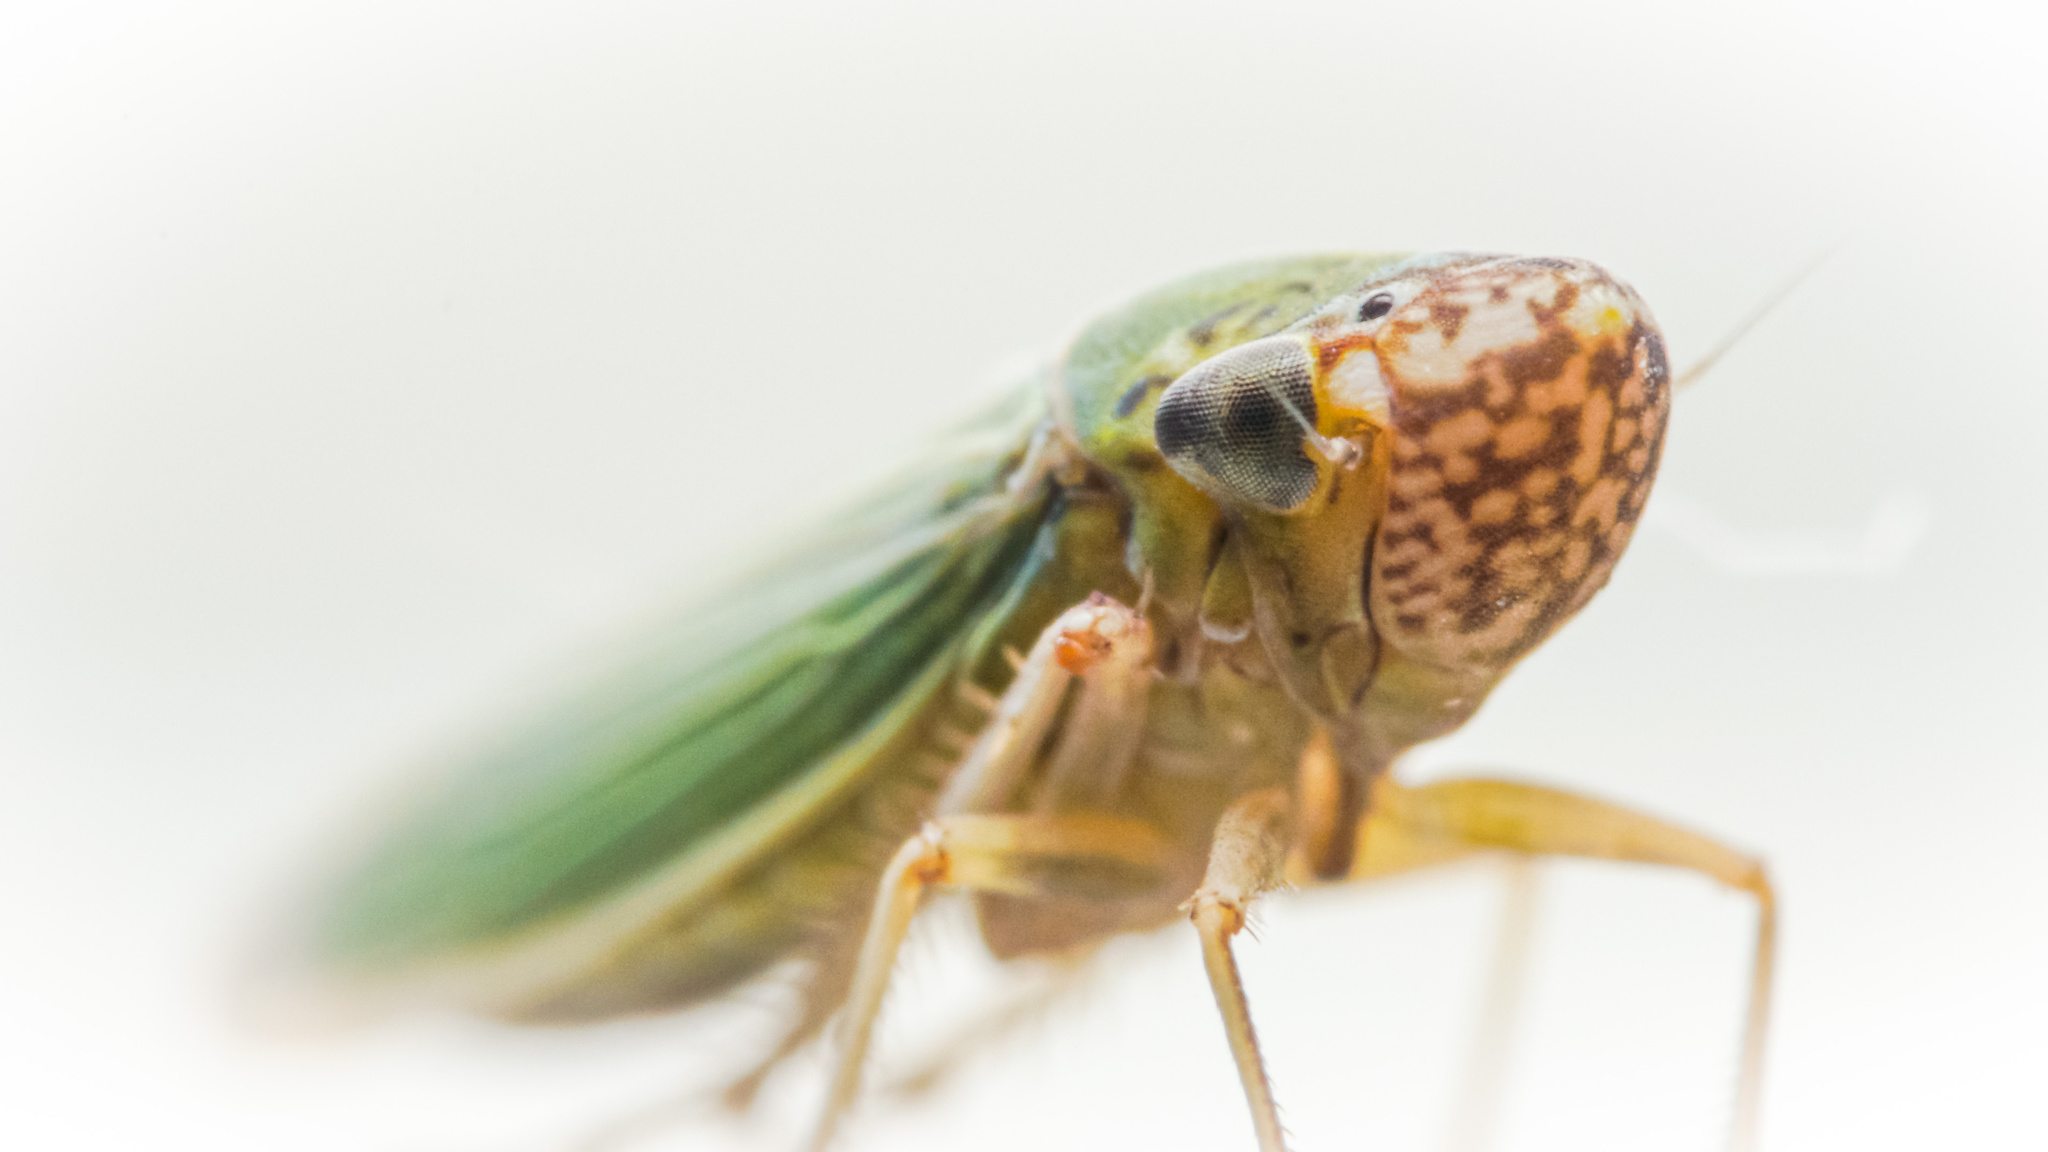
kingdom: Animalia
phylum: Arthropoda
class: Insecta
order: Hemiptera
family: Cicadellidae
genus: Xyphon
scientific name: Xyphon reticulatum
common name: Planthopper
